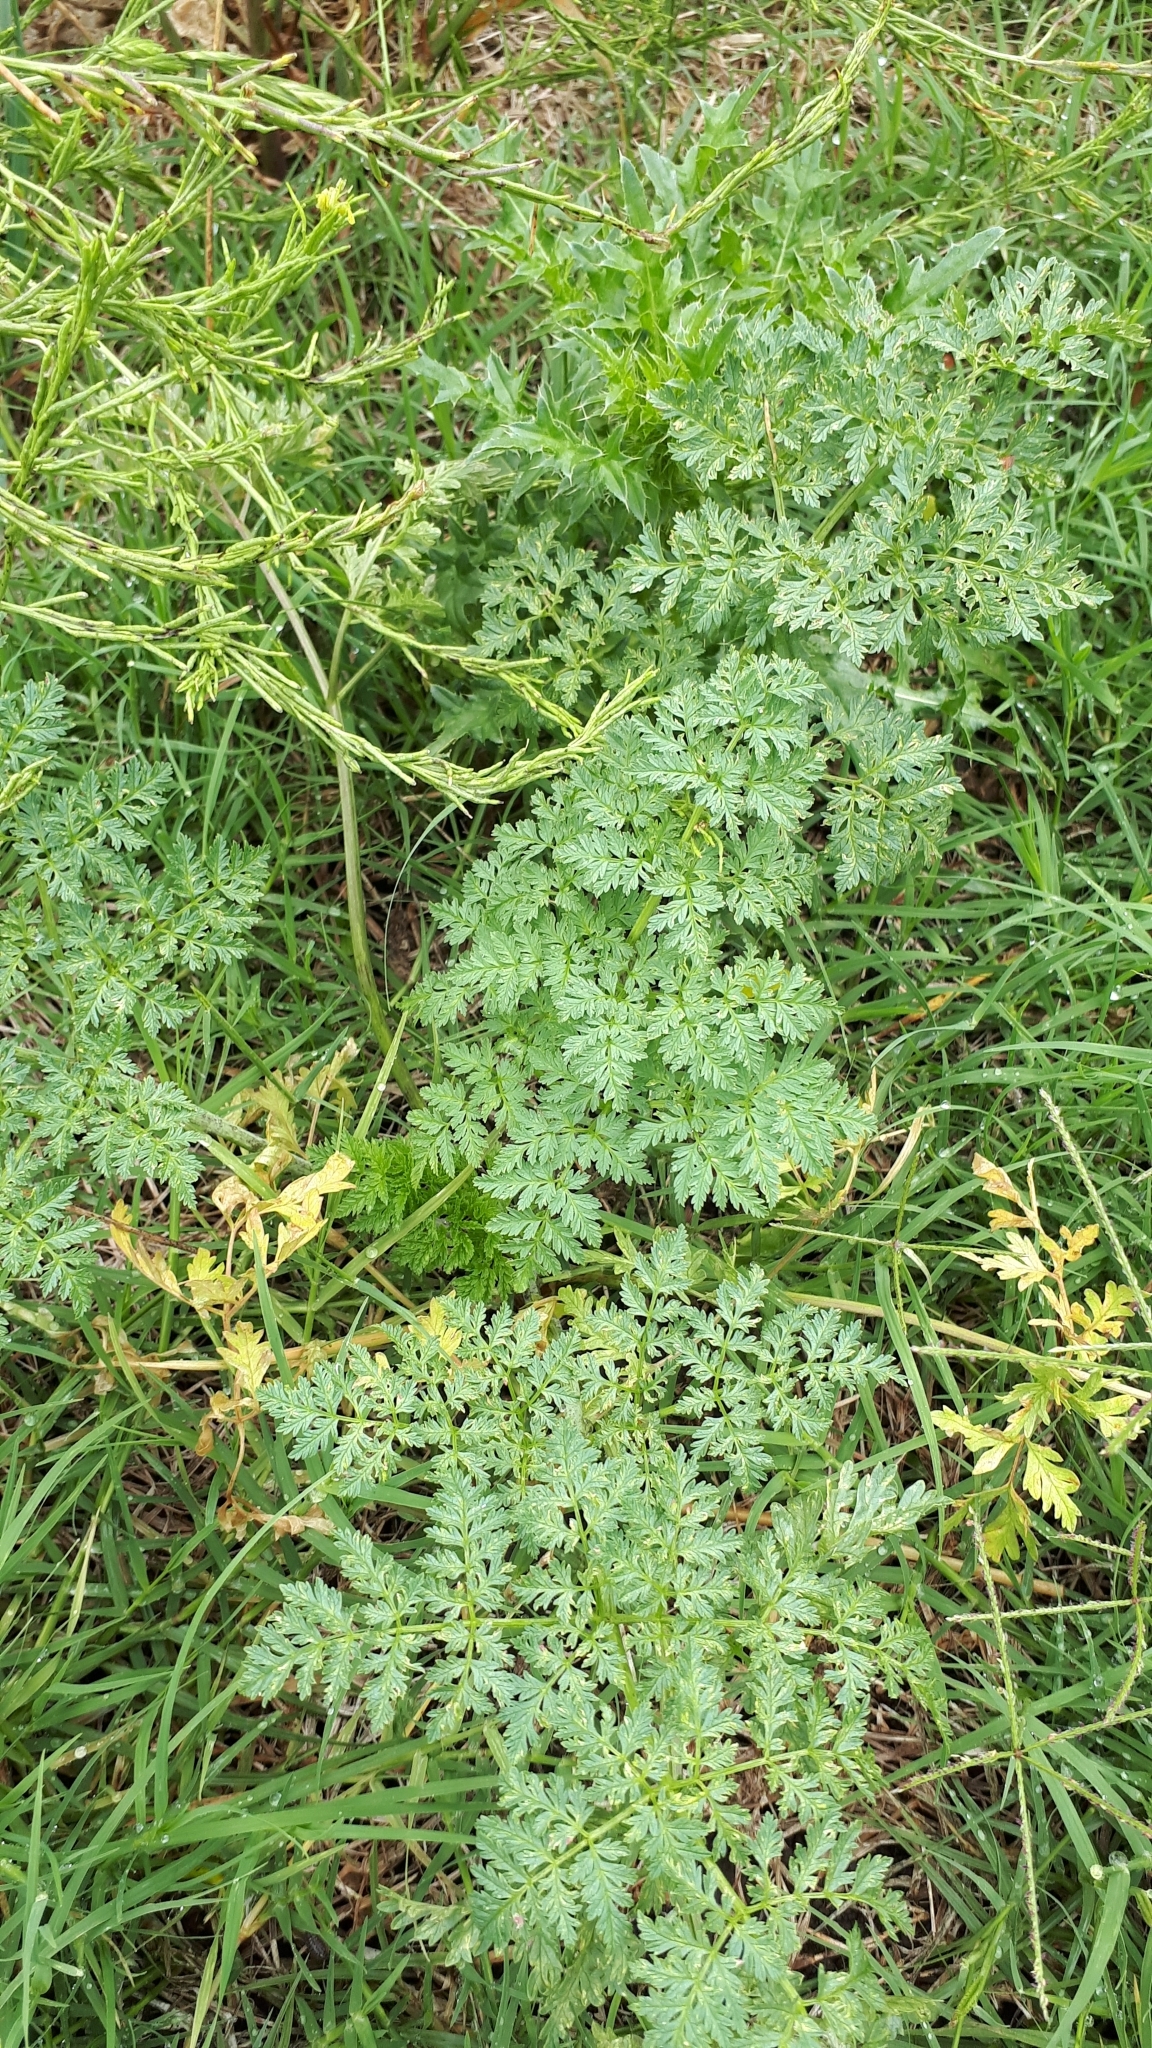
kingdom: Plantae
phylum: Tracheophyta
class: Magnoliopsida
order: Apiales
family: Apiaceae
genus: Conium
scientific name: Conium maculatum
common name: Hemlock
